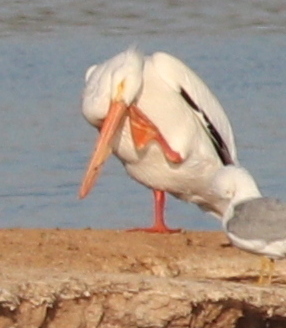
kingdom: Animalia
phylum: Chordata
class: Aves
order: Pelecaniformes
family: Pelecanidae
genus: Pelecanus
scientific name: Pelecanus erythrorhynchos
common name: American white pelican
